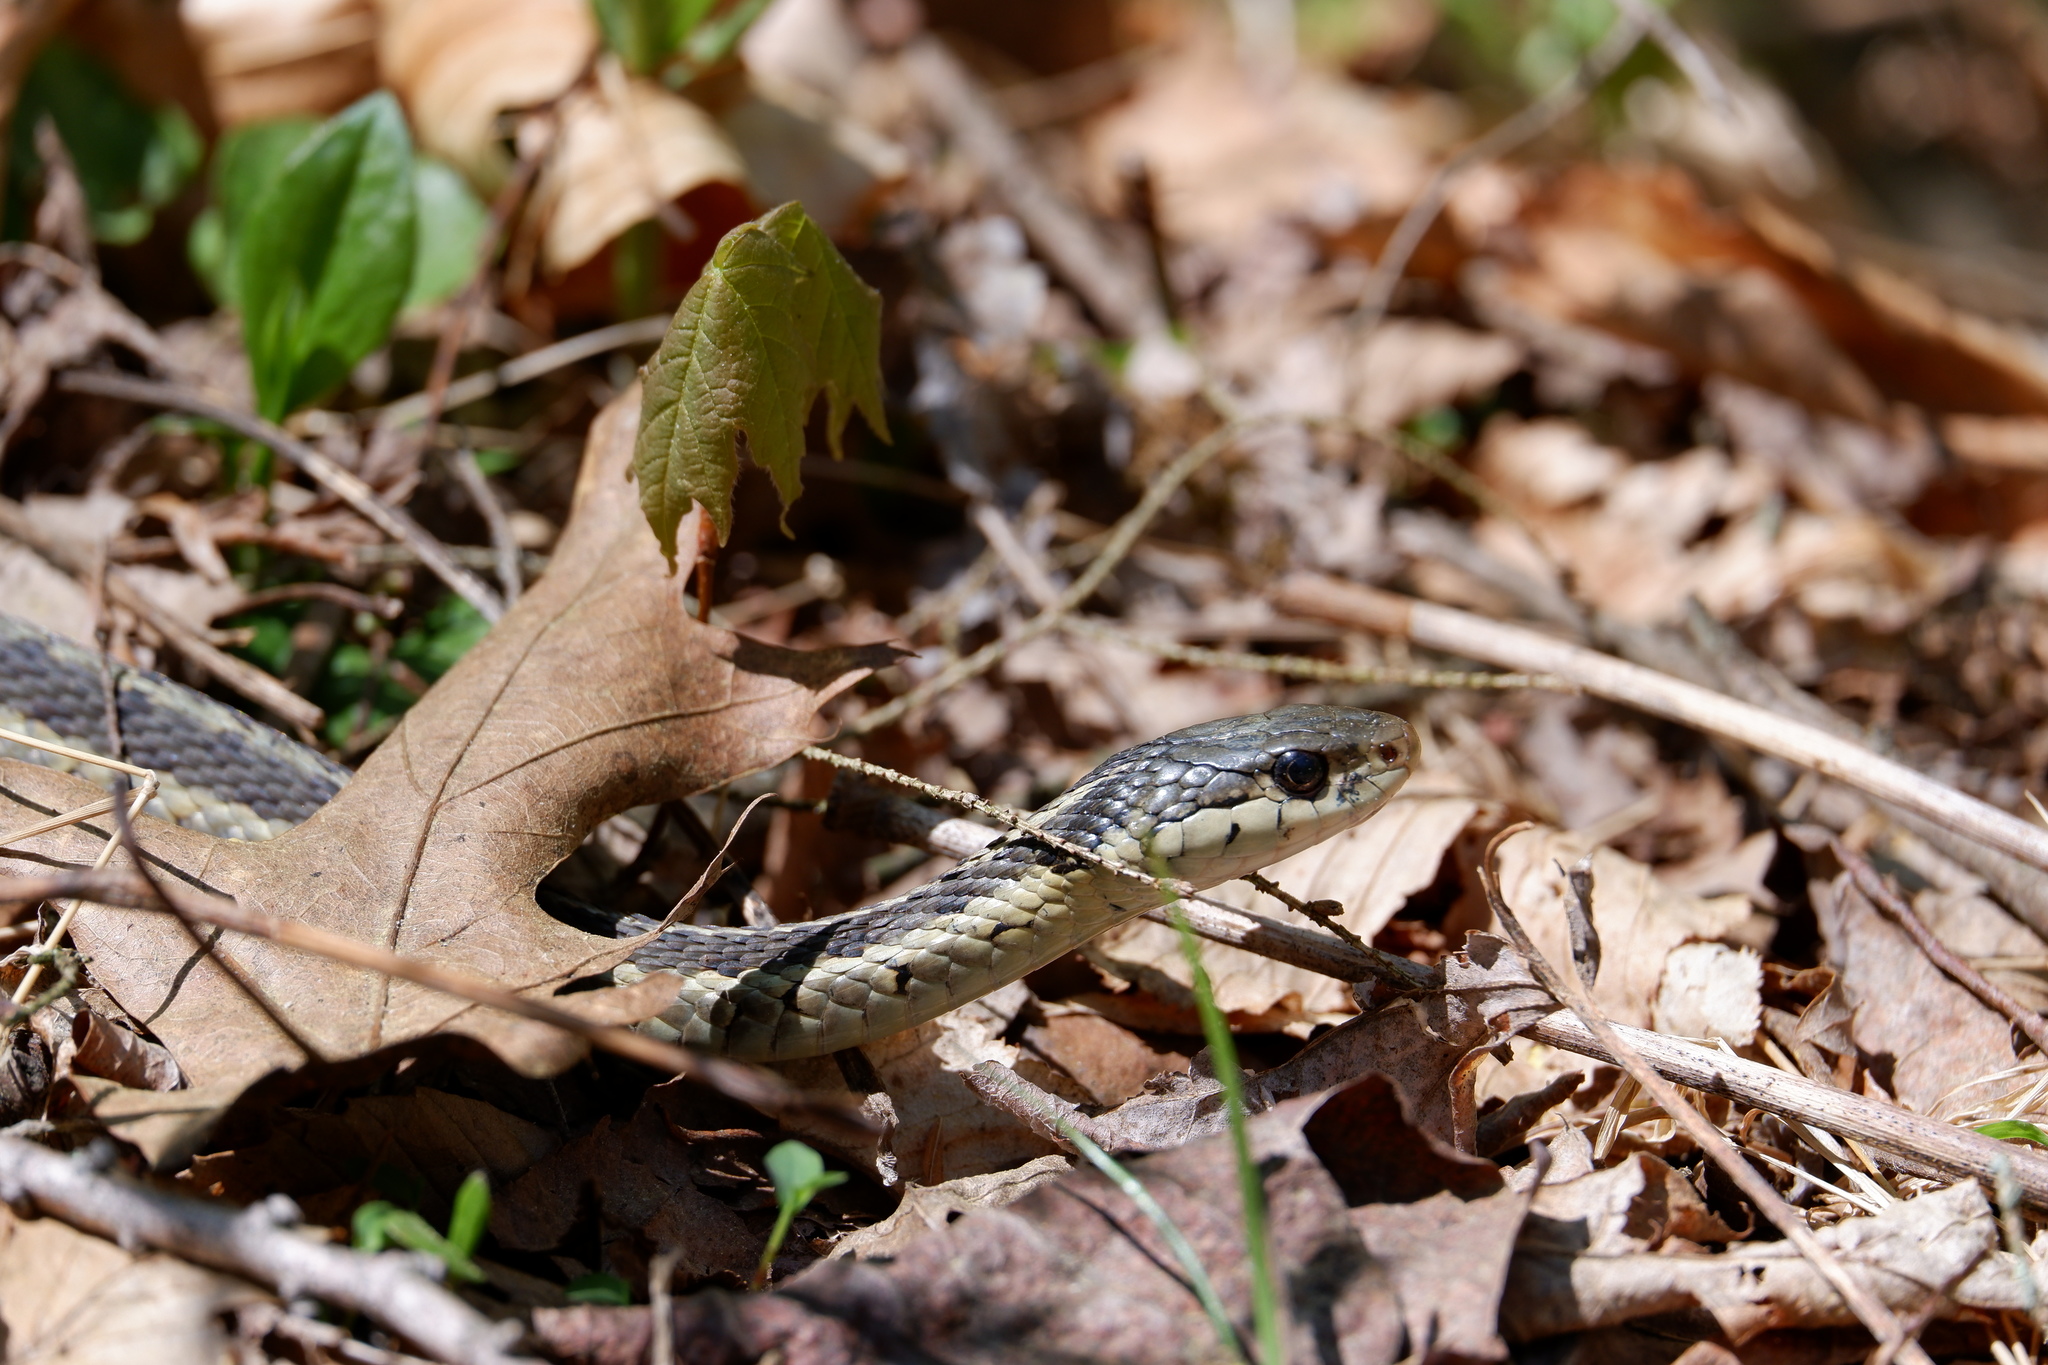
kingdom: Animalia
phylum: Chordata
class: Squamata
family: Colubridae
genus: Thamnophis
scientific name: Thamnophis sirtalis
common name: Common garter snake
